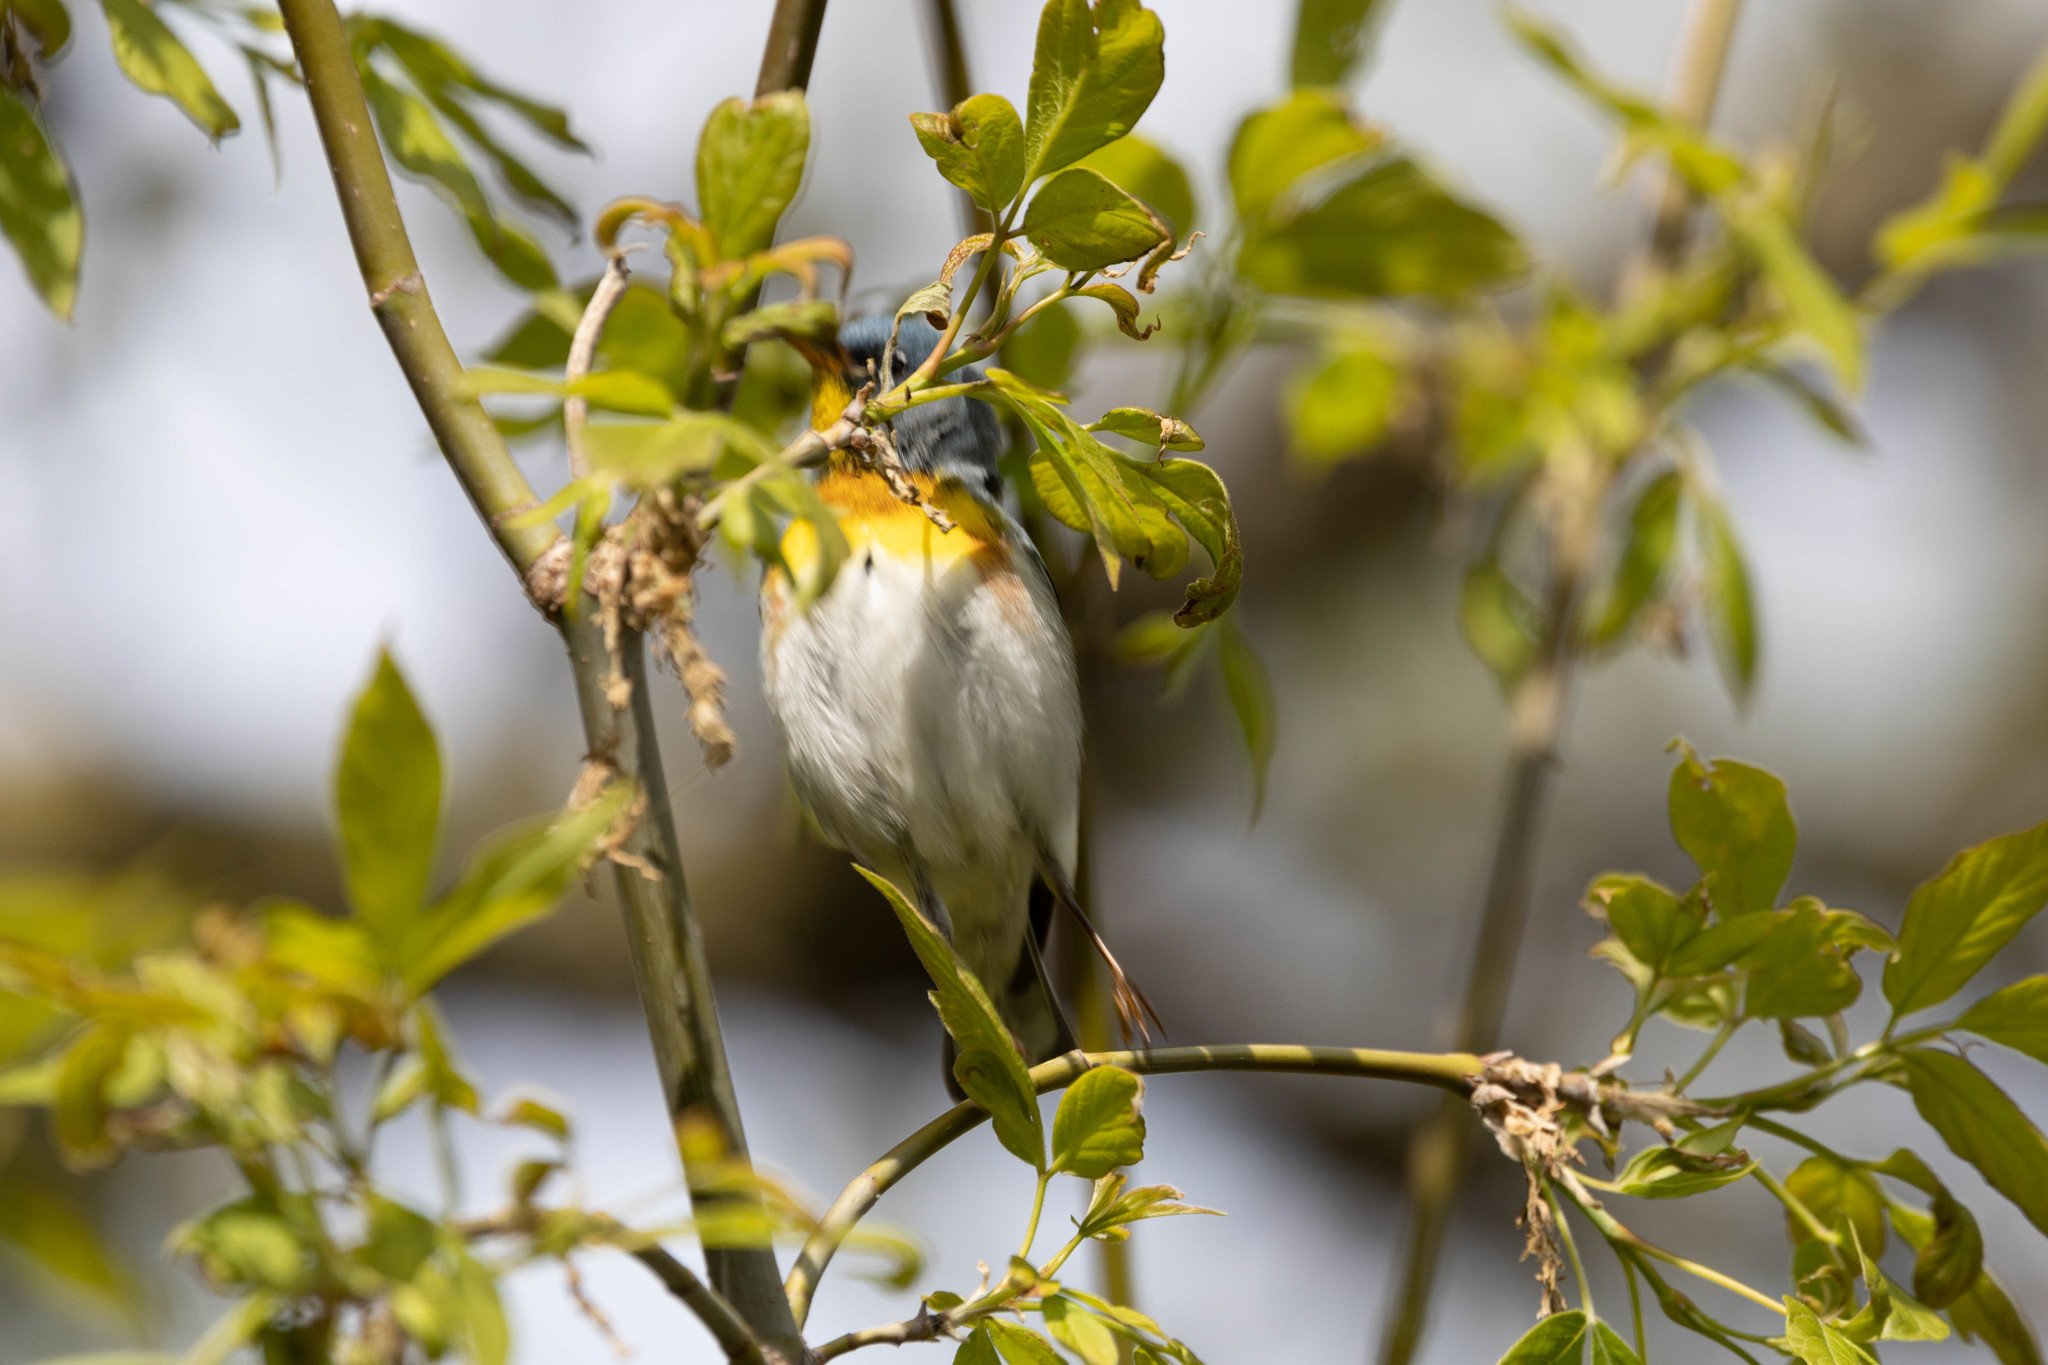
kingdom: Animalia
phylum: Chordata
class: Aves
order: Passeriformes
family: Parulidae
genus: Setophaga
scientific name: Setophaga americana
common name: Northern parula
